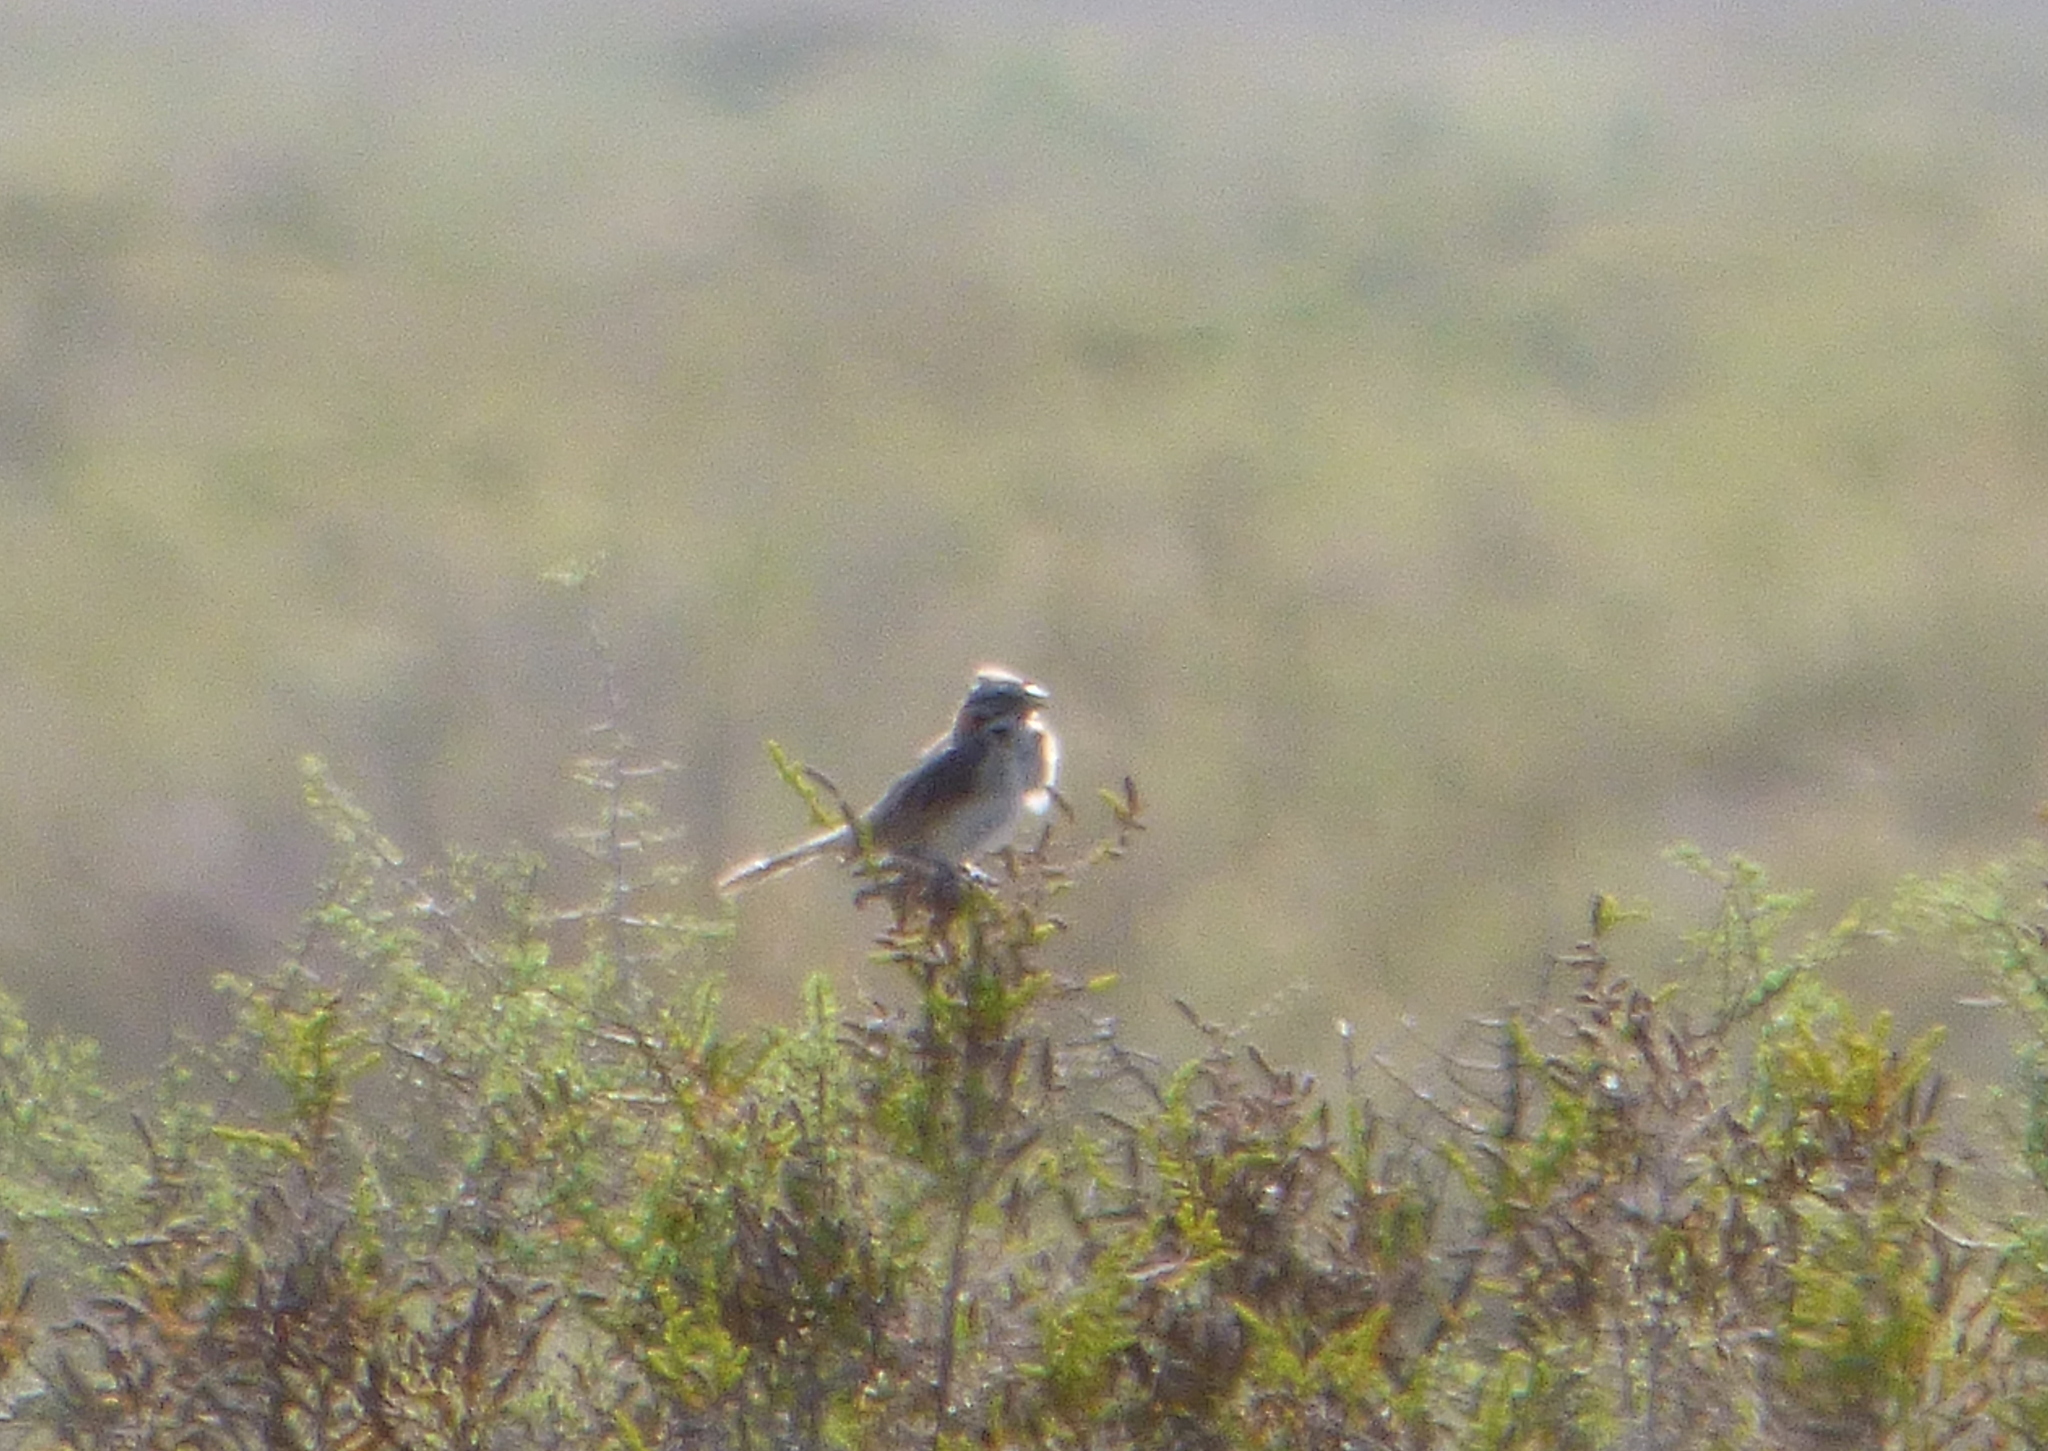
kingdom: Animalia
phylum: Chordata
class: Aves
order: Passeriformes
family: Passerellidae
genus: Zonotrichia
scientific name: Zonotrichia capensis
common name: Rufous-collared sparrow
